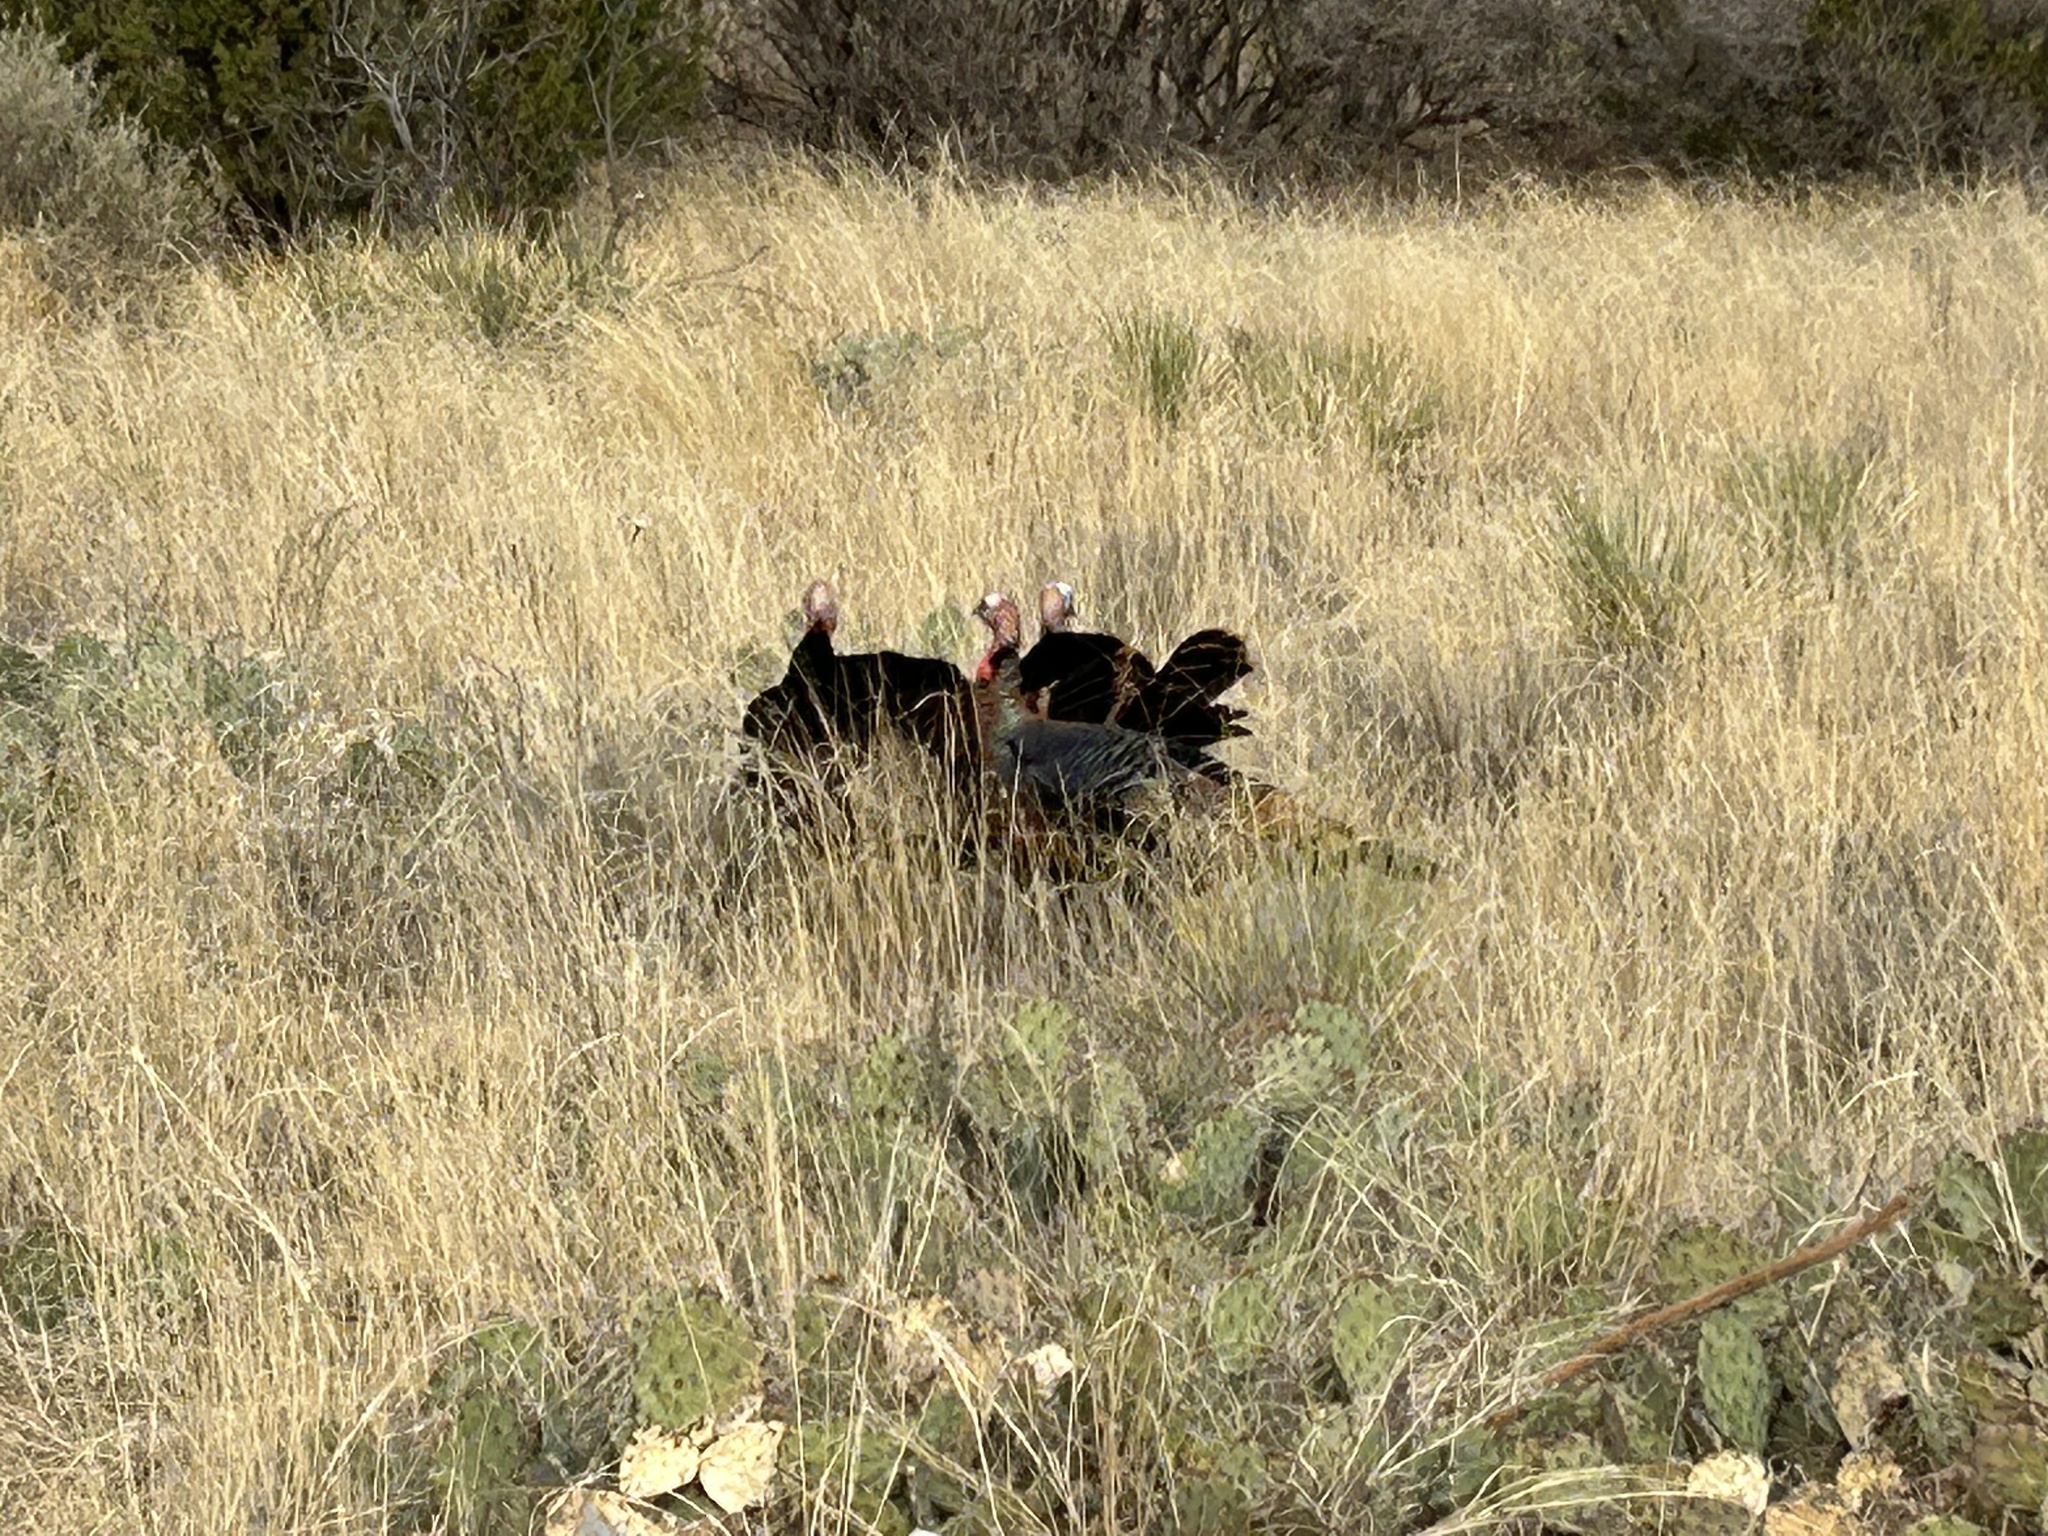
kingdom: Animalia
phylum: Chordata
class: Aves
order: Galliformes
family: Phasianidae
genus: Meleagris
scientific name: Meleagris gallopavo
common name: Wild turkey
